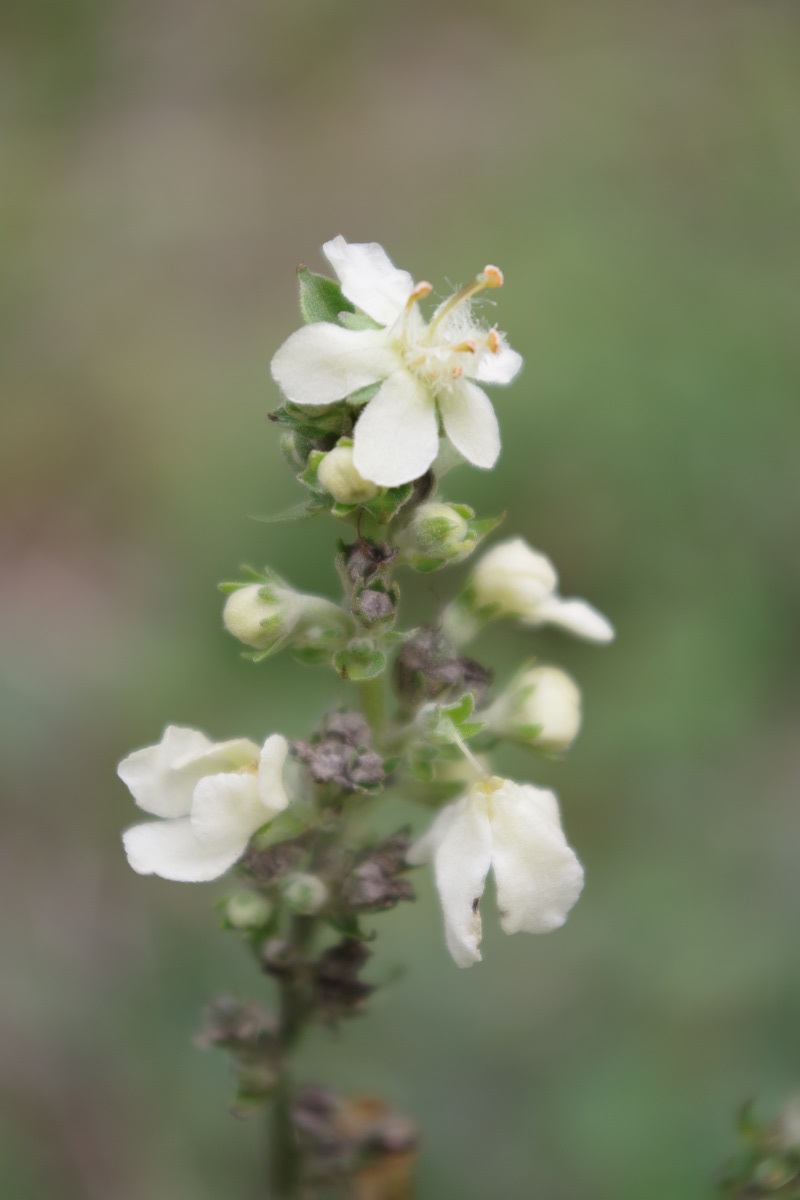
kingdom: Plantae
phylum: Tracheophyta
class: Magnoliopsida
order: Lamiales
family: Scrophulariaceae
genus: Verbascum
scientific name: Verbascum lychnitis
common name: White mullein
